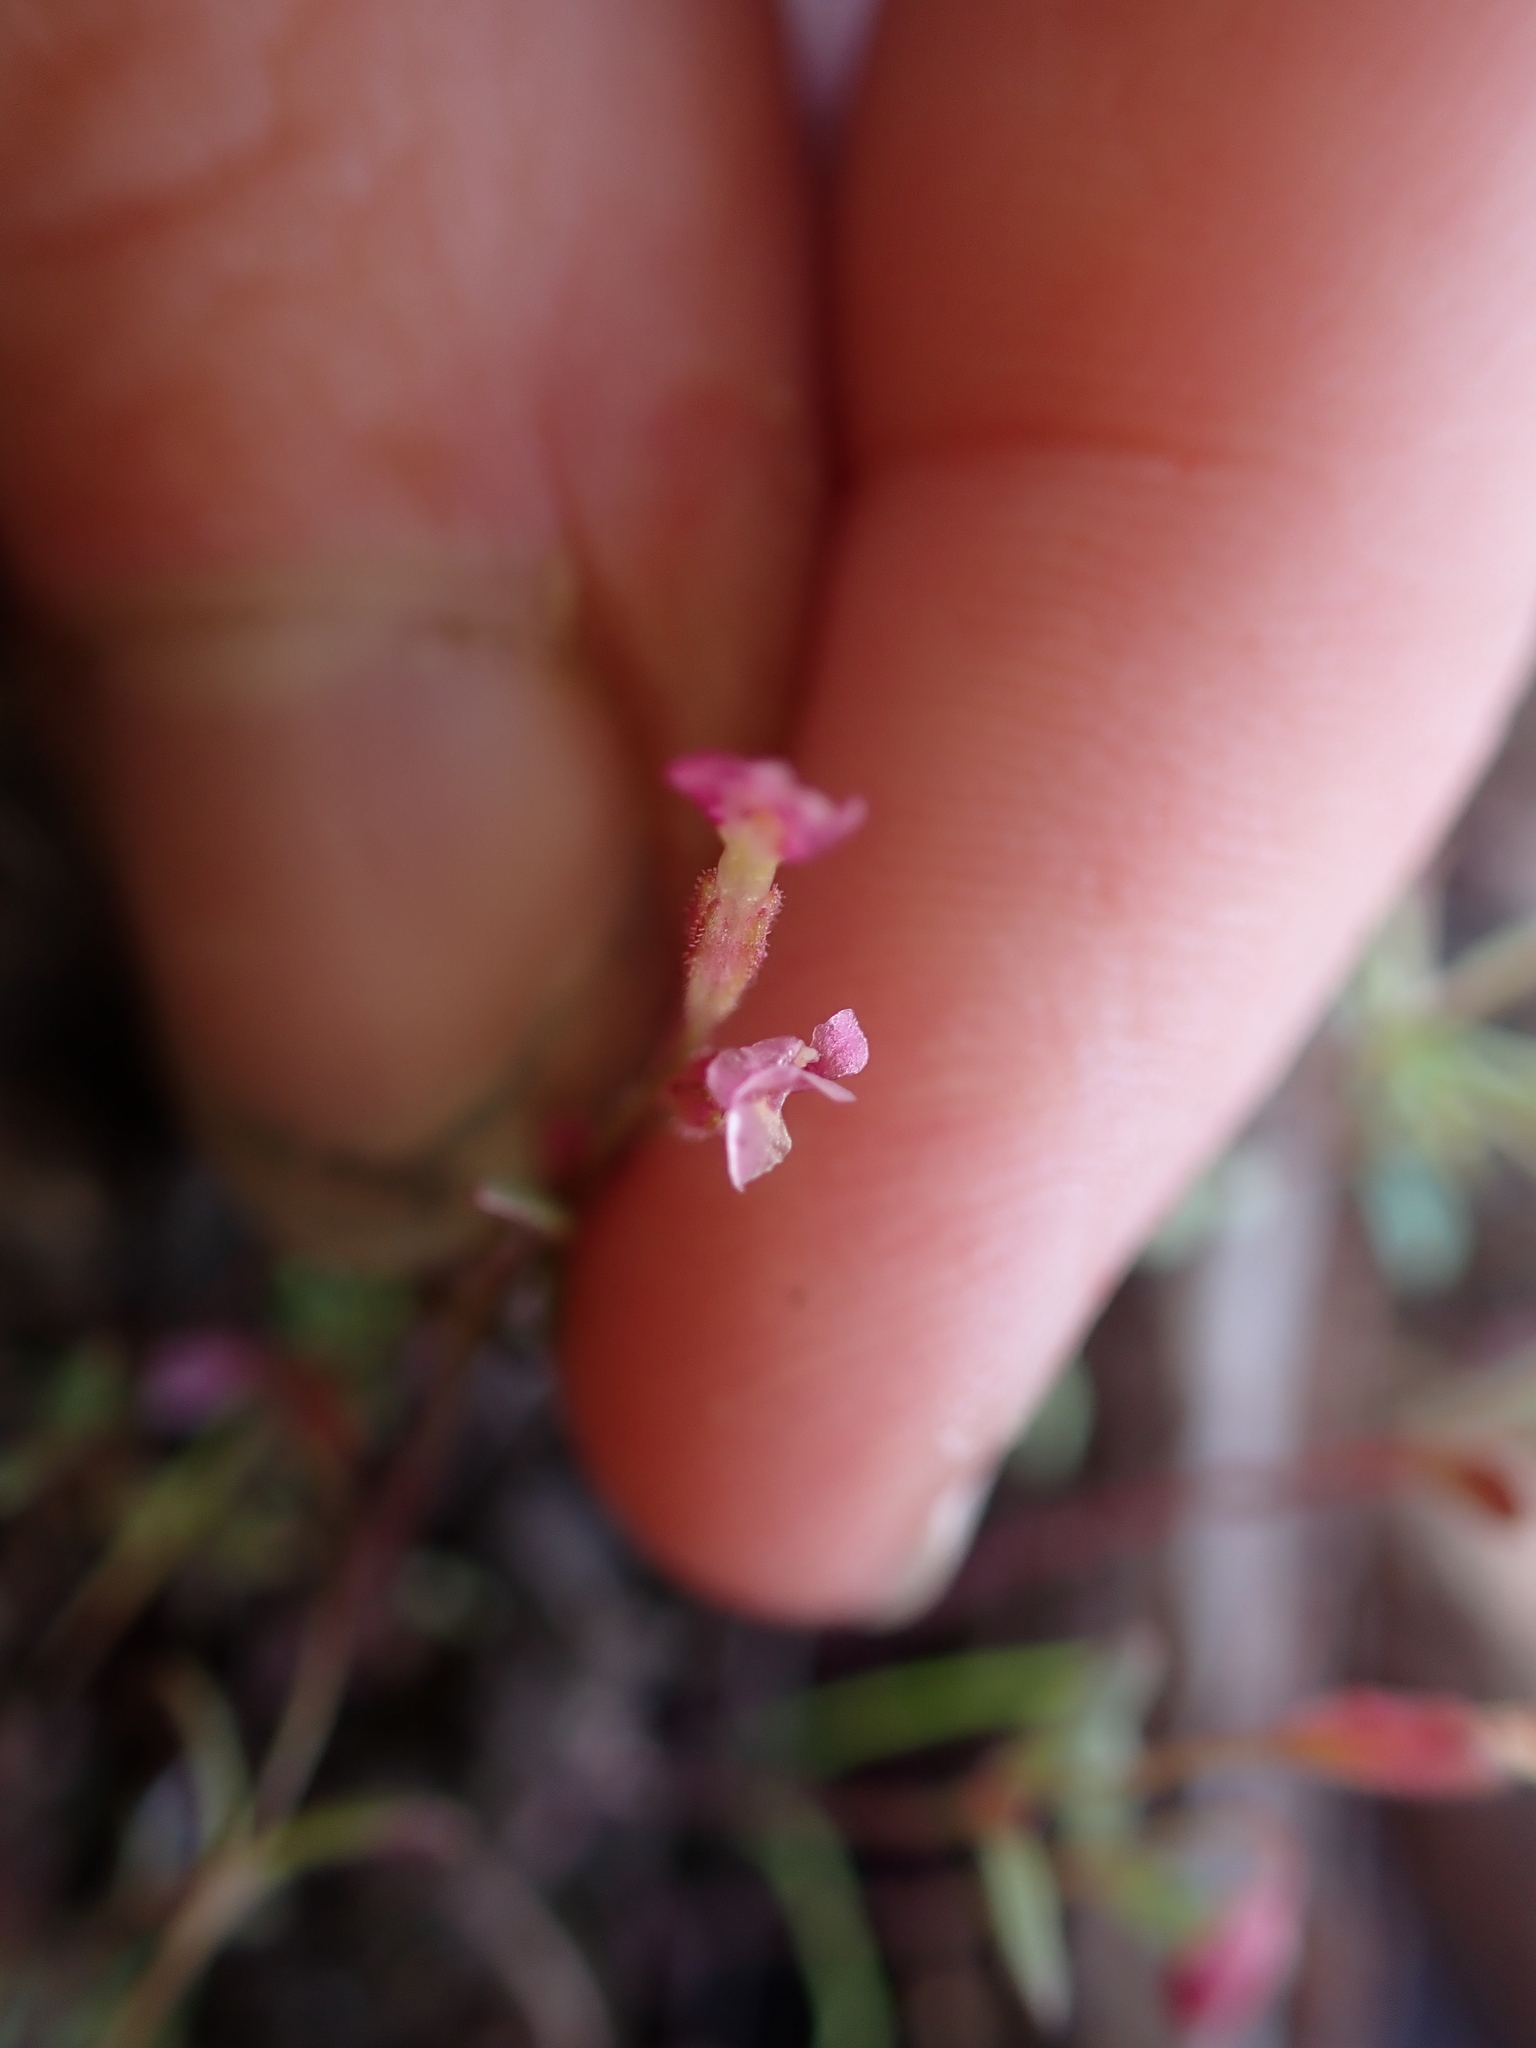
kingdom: Plantae
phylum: Tracheophyta
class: Magnoliopsida
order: Lamiales
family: Phrymaceae
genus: Erythranthe
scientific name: Erythranthe breweri
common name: Brewer's monkeyflower
